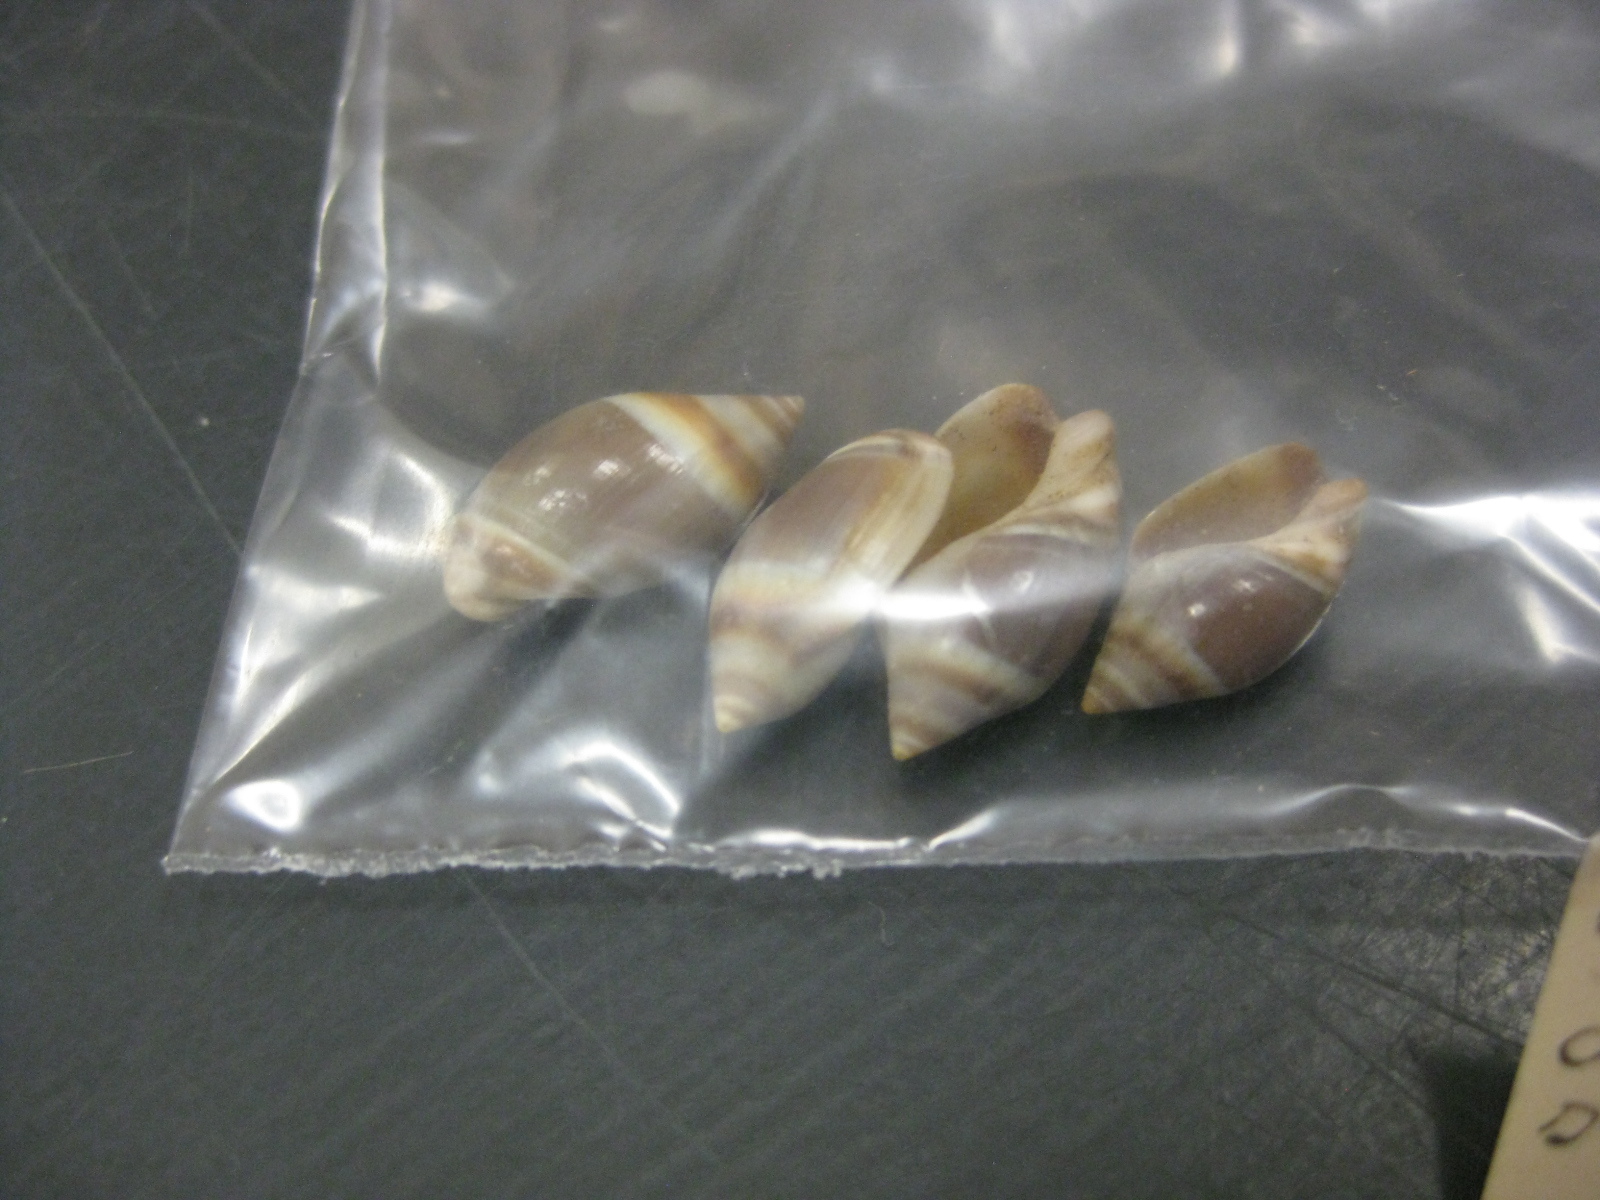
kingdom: Animalia
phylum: Mollusca
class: Gastropoda
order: Neogastropoda
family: Ancillariidae
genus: Amalda
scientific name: Amalda depressa
